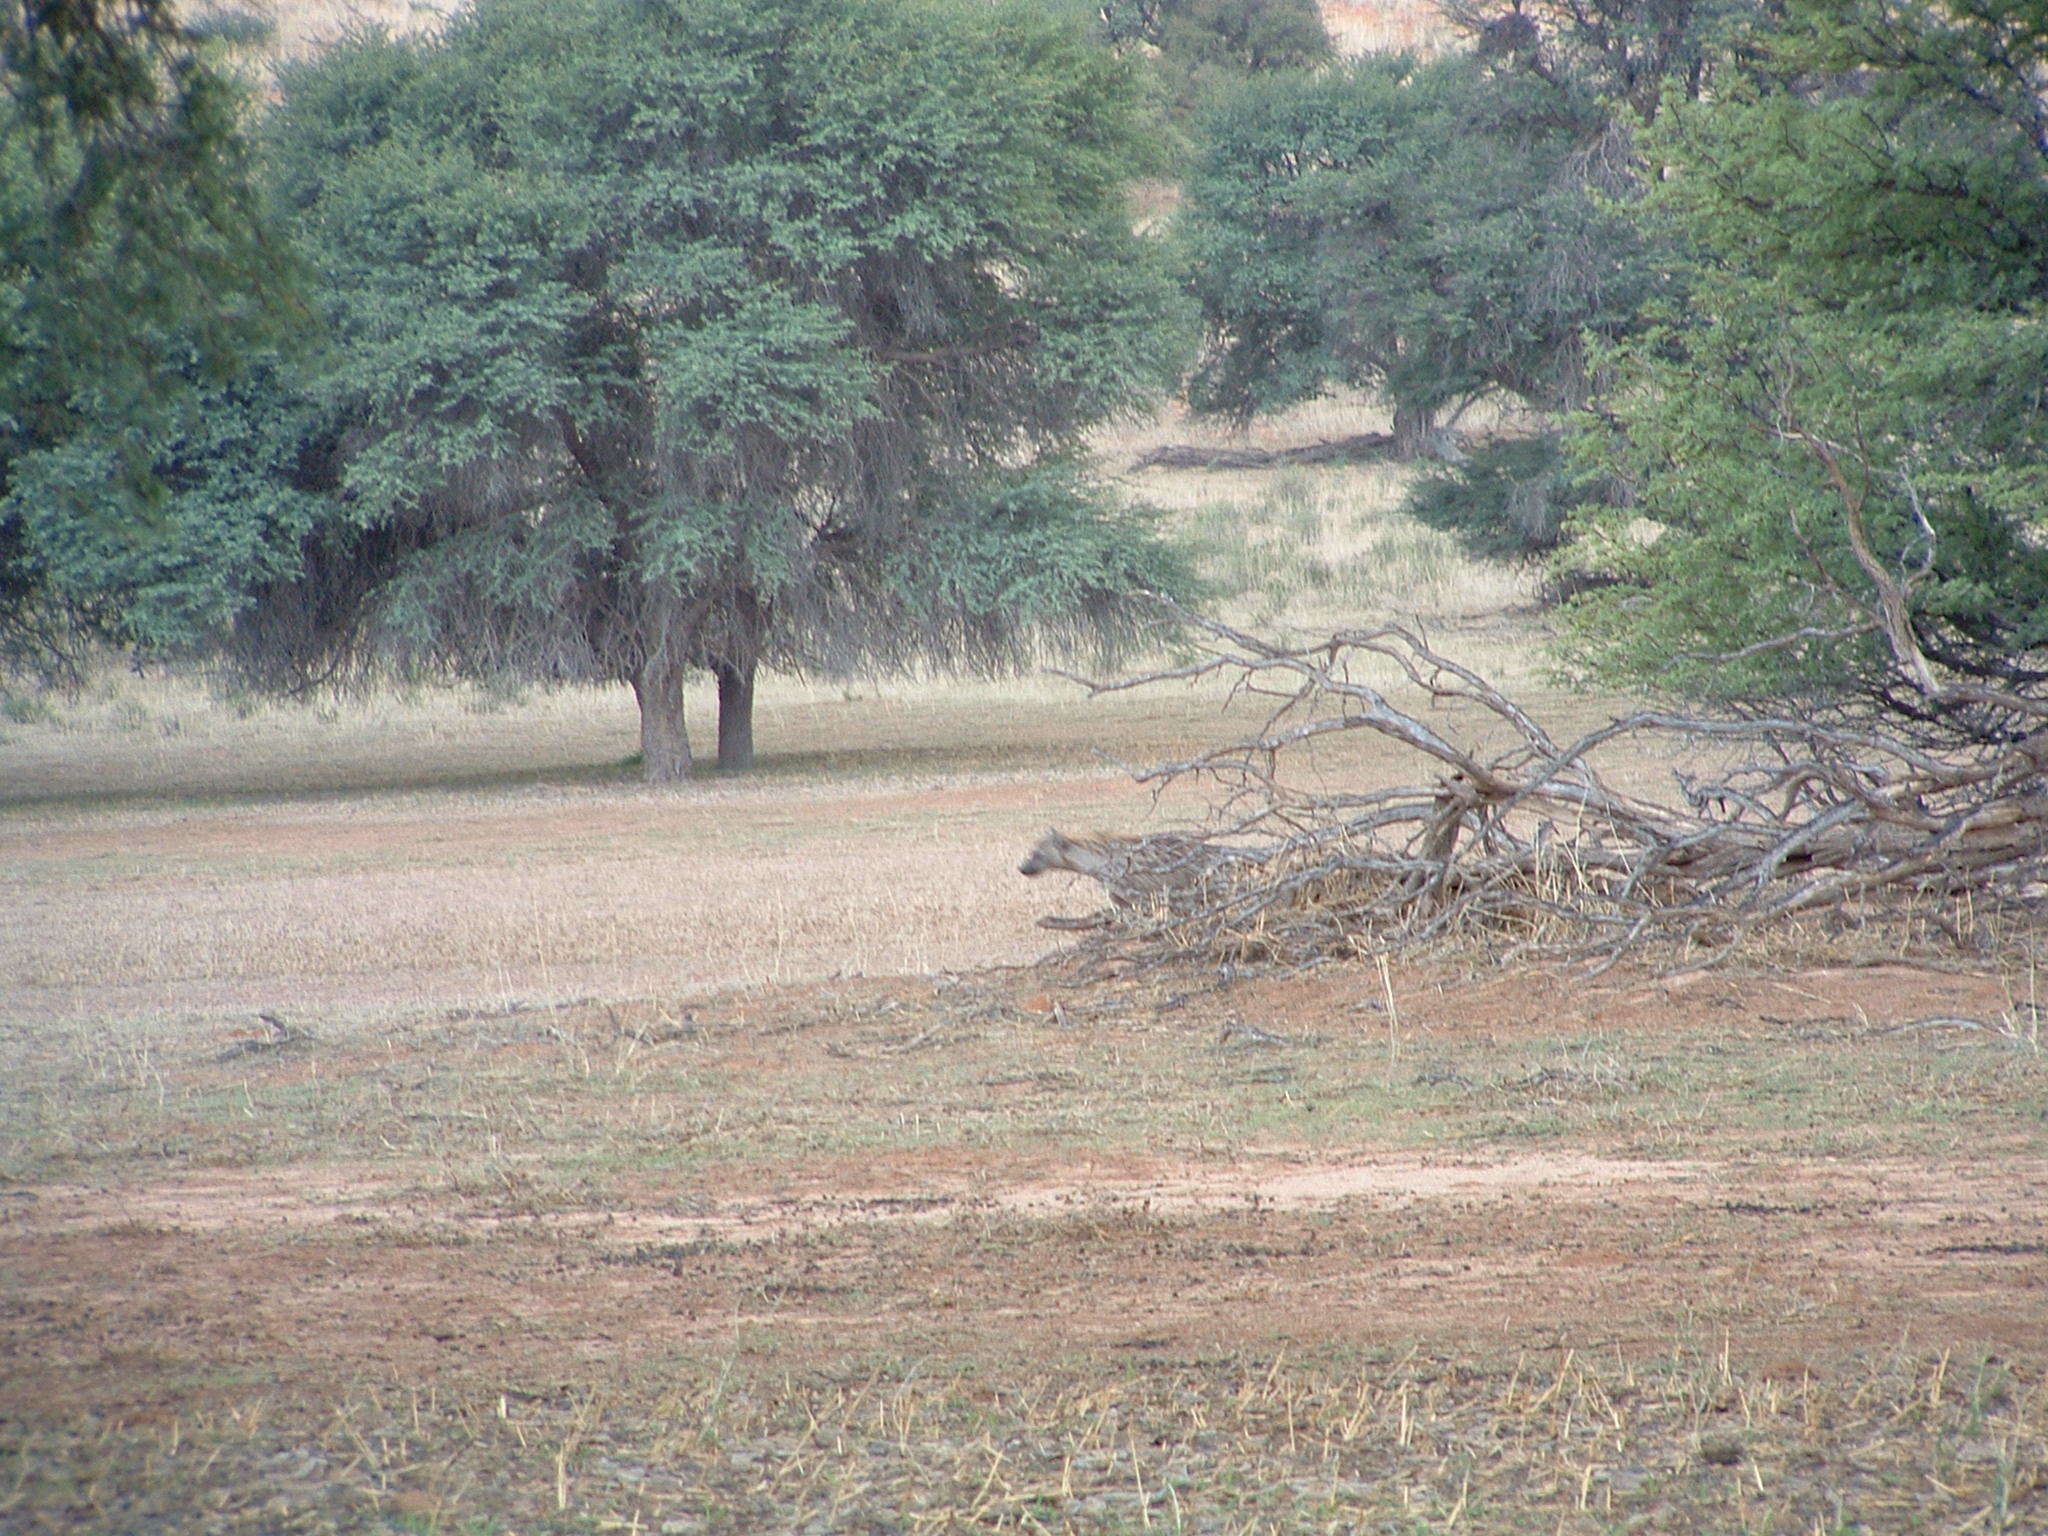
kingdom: Animalia
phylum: Chordata
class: Mammalia
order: Carnivora
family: Hyaenidae
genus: Crocuta
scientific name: Crocuta crocuta
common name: Spotted hyaena
